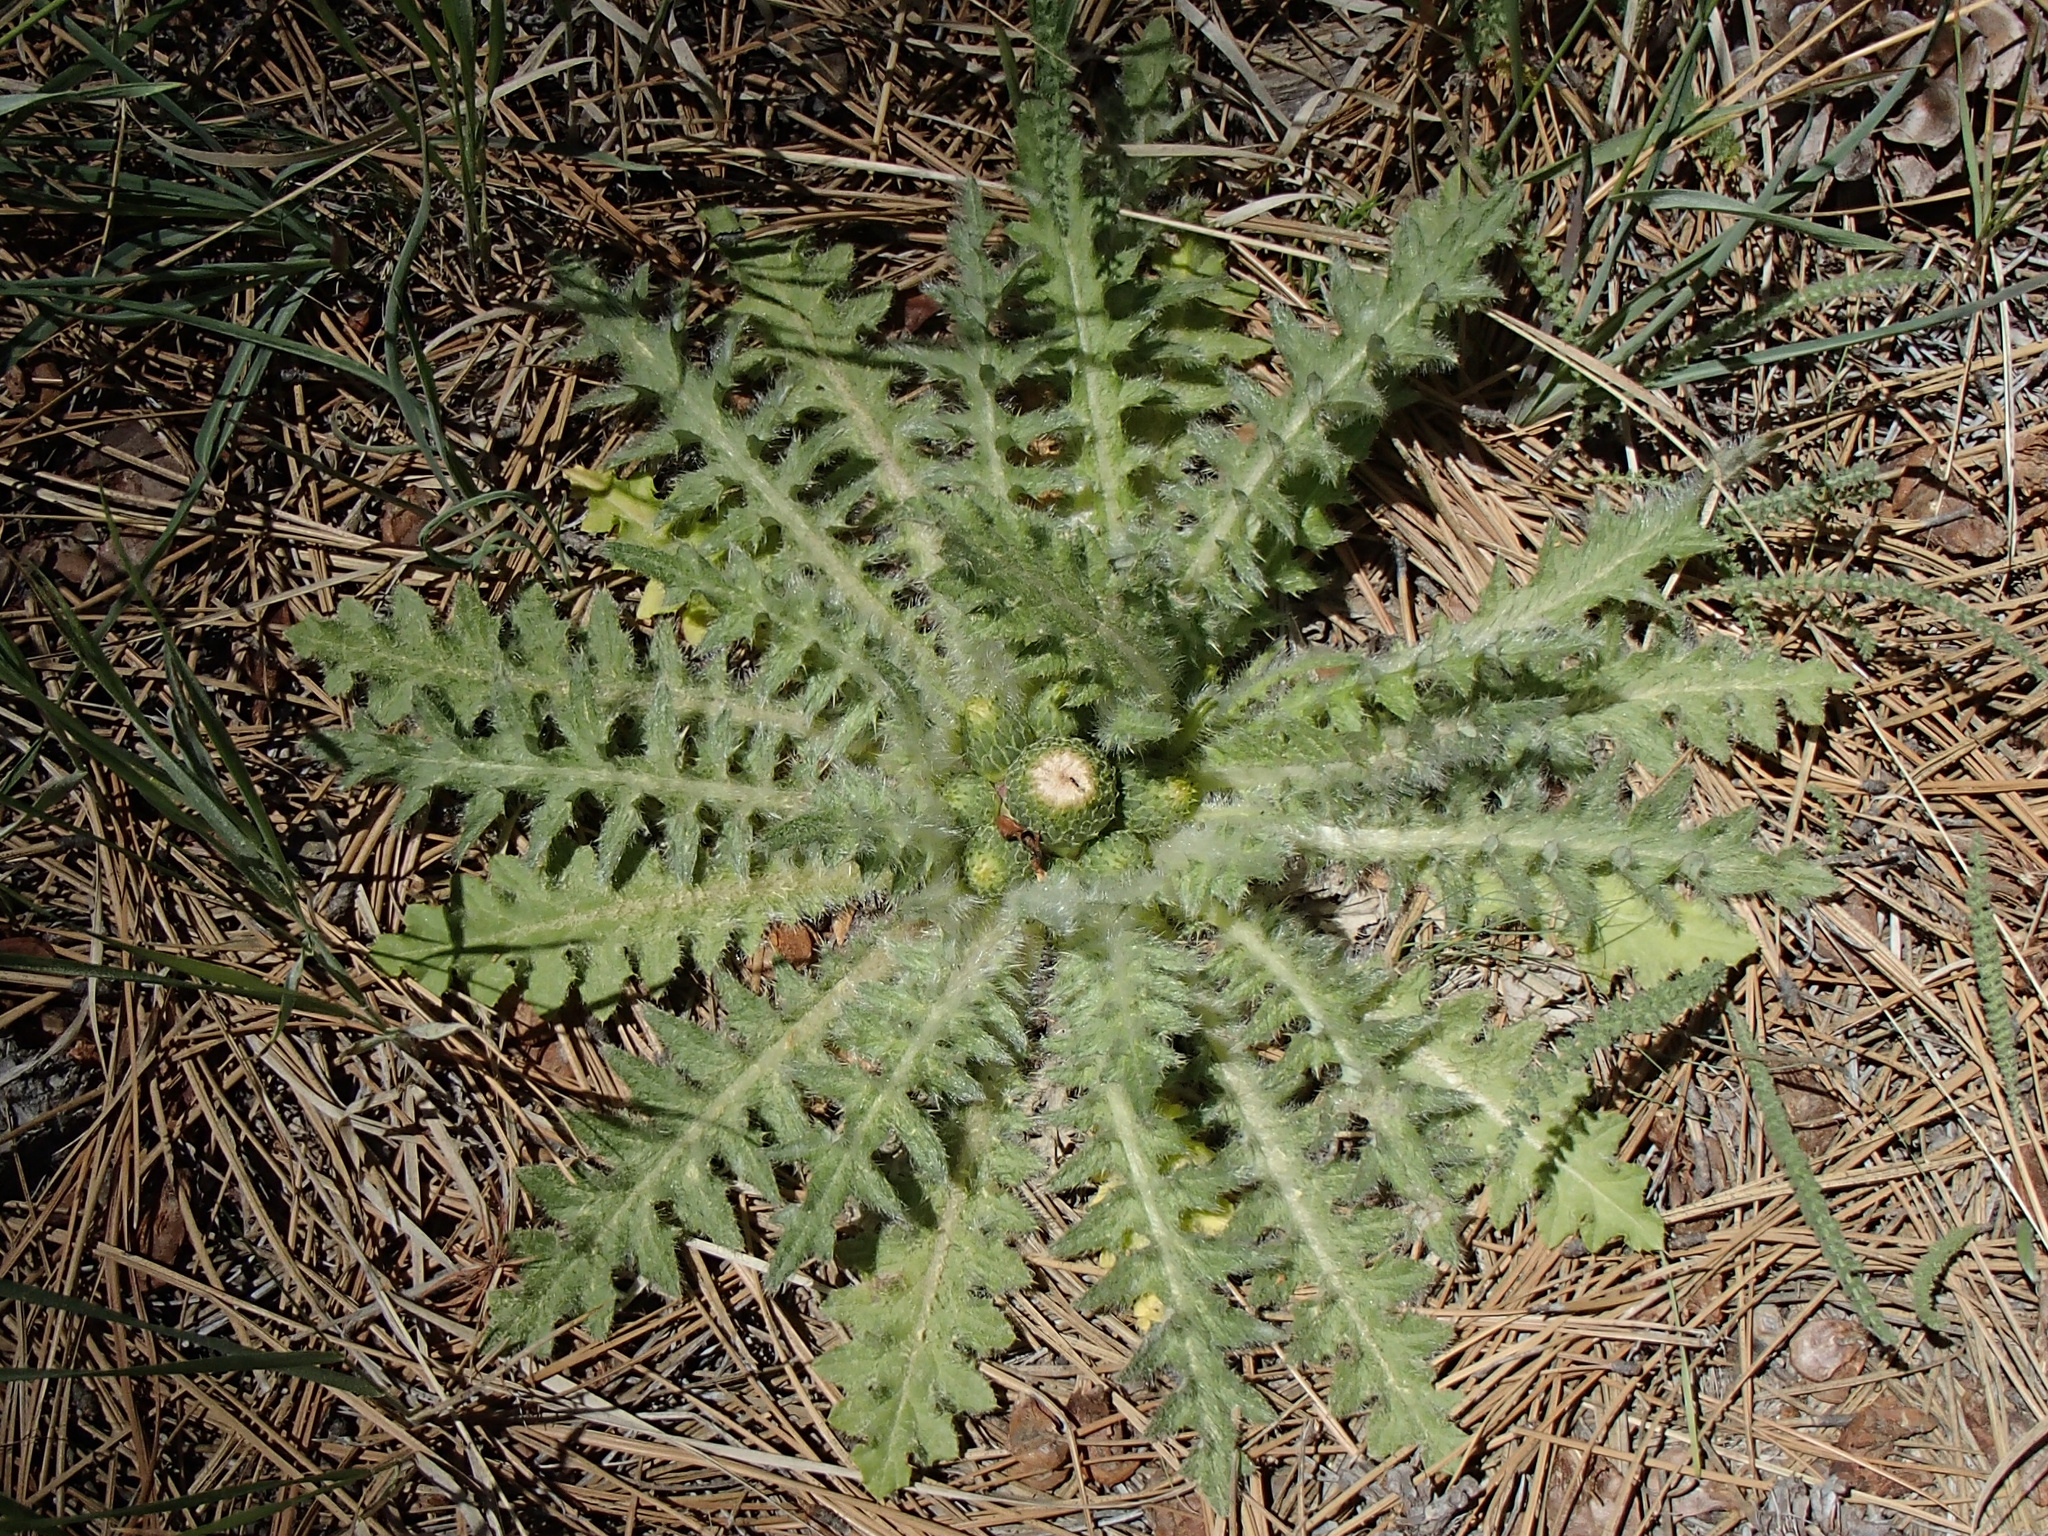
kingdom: Plantae
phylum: Tracheophyta
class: Magnoliopsida
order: Asterales
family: Asteraceae
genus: Cirsium
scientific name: Cirsium scariosum
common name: Meadow thistle
